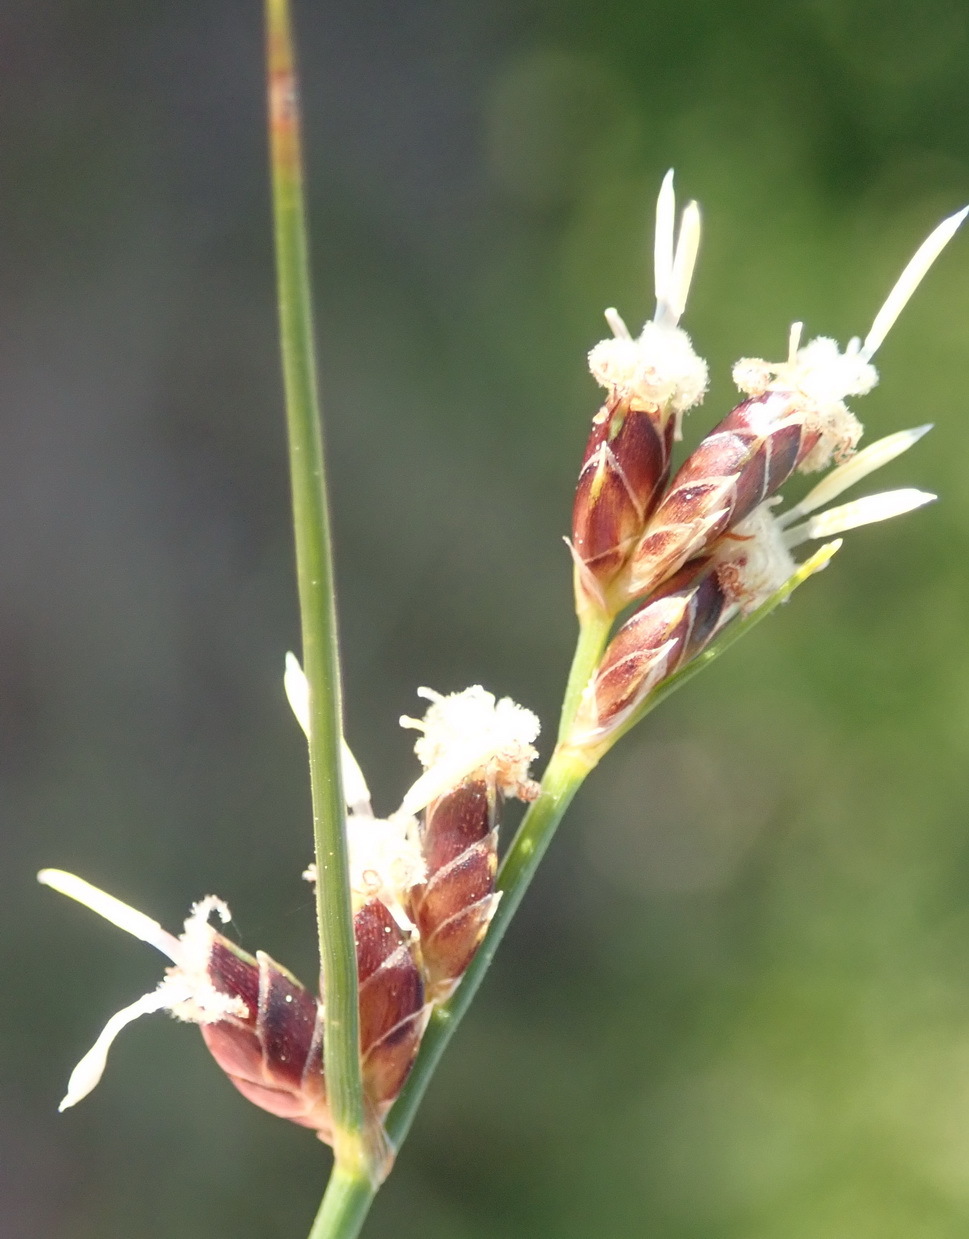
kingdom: Plantae
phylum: Tracheophyta
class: Liliopsida
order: Poales
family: Cyperaceae
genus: Ficinia
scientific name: Ficinia secunda
